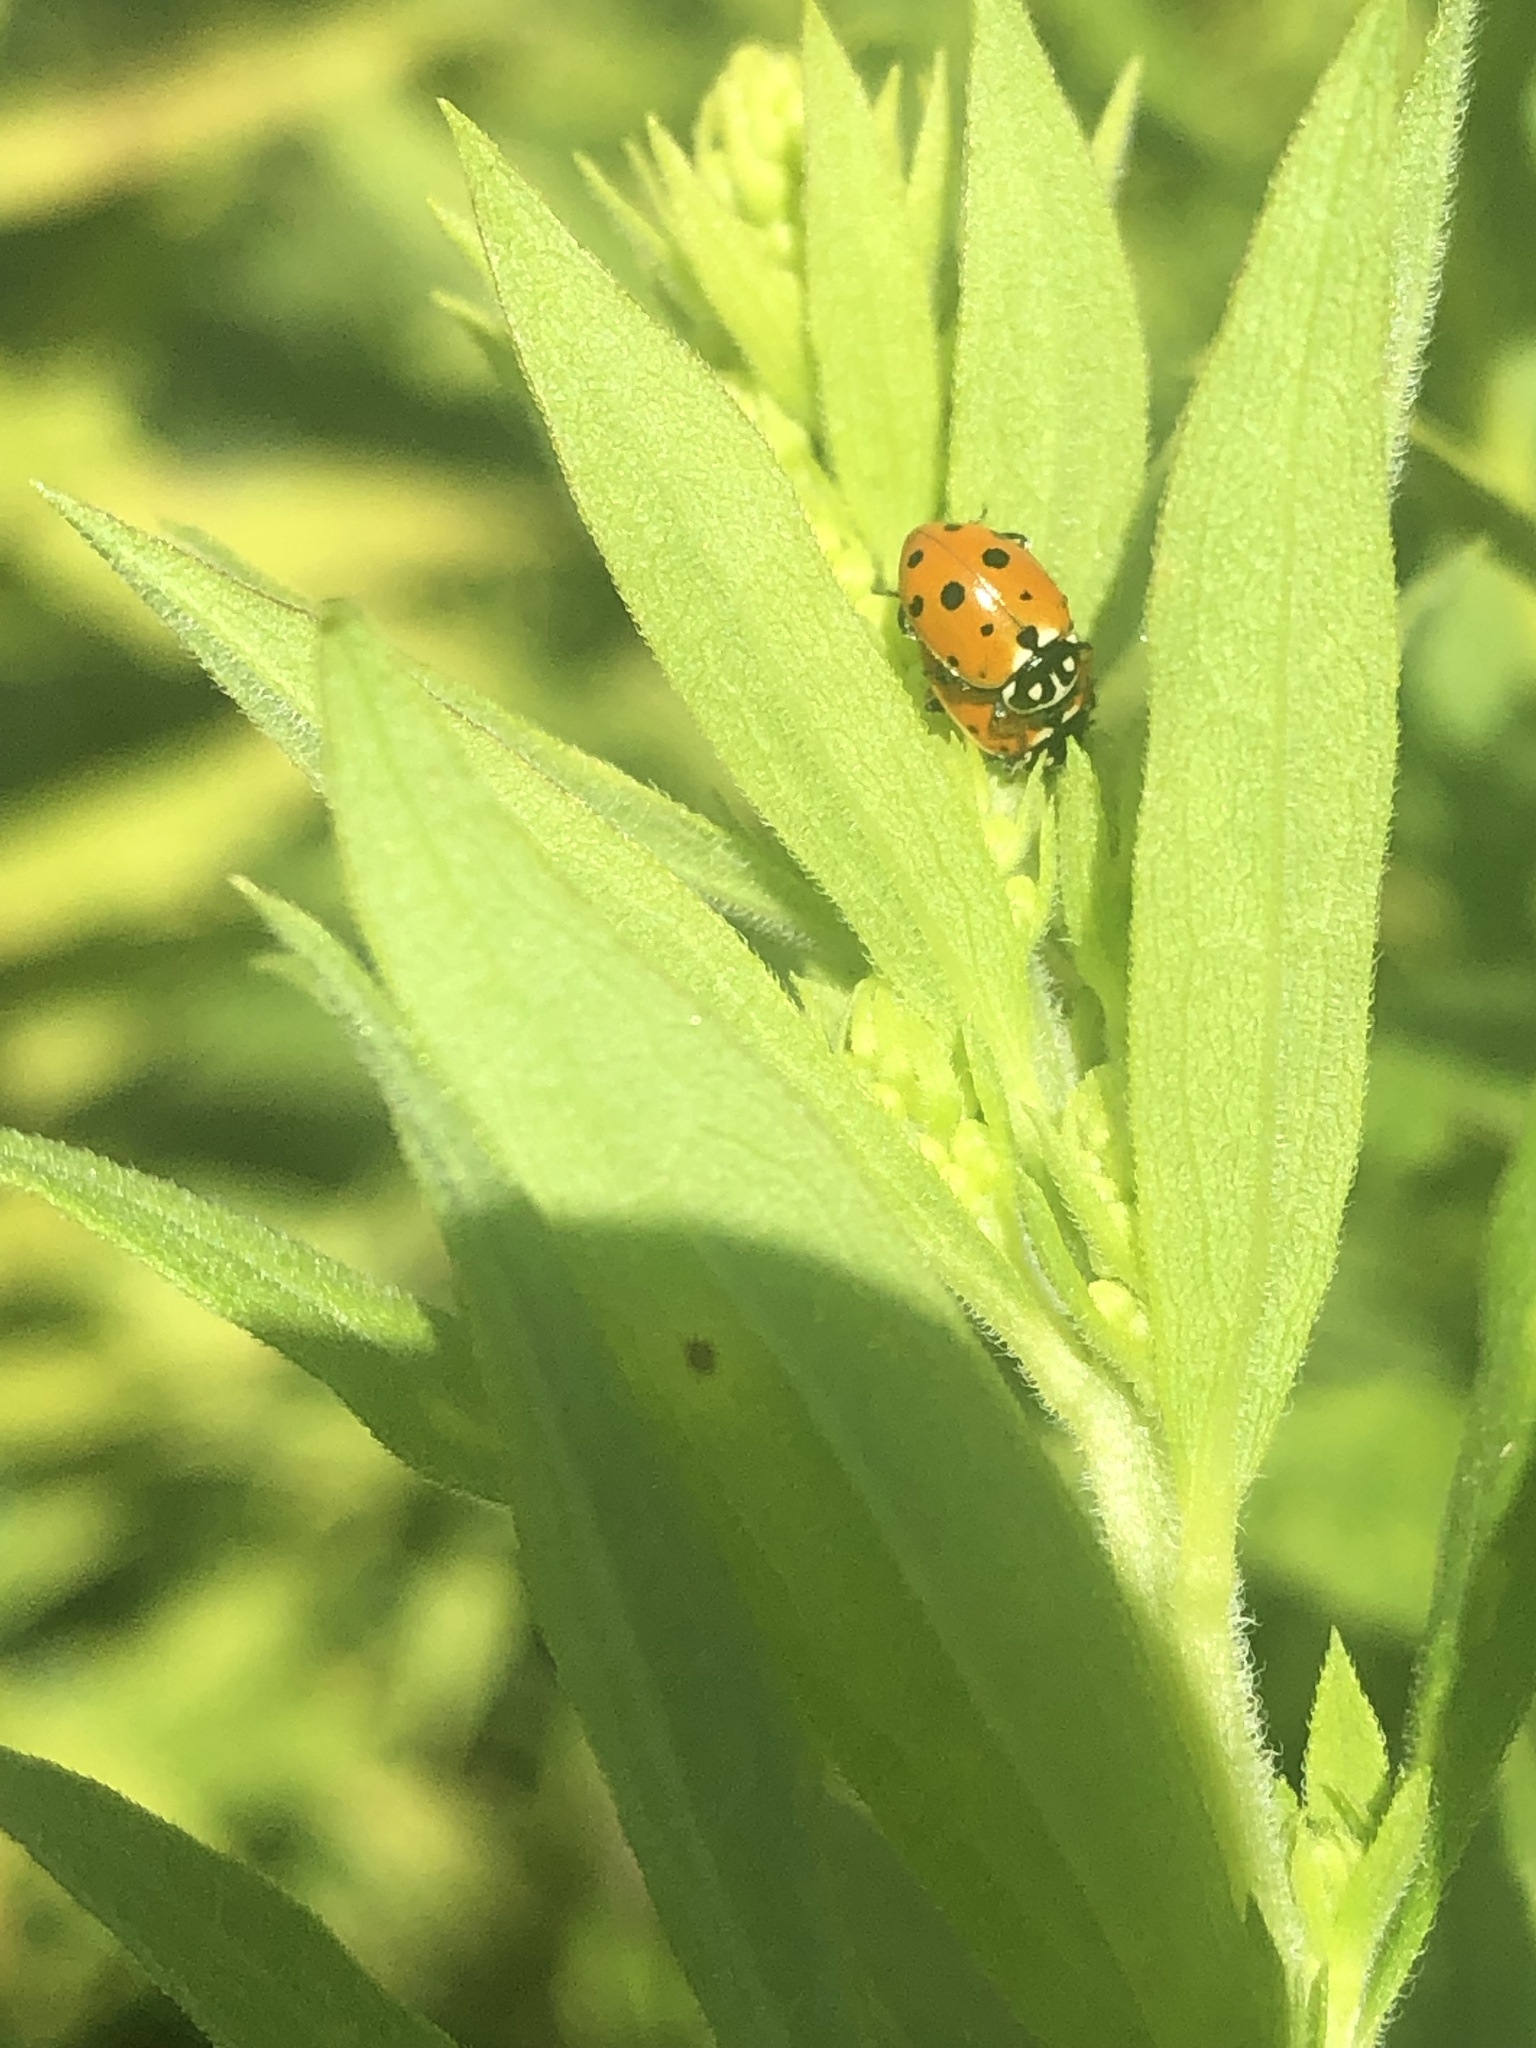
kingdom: Animalia
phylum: Arthropoda
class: Insecta
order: Coleoptera
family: Coccinellidae
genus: Hippodamia
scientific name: Hippodamia variegata
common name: Ladybird beetle
